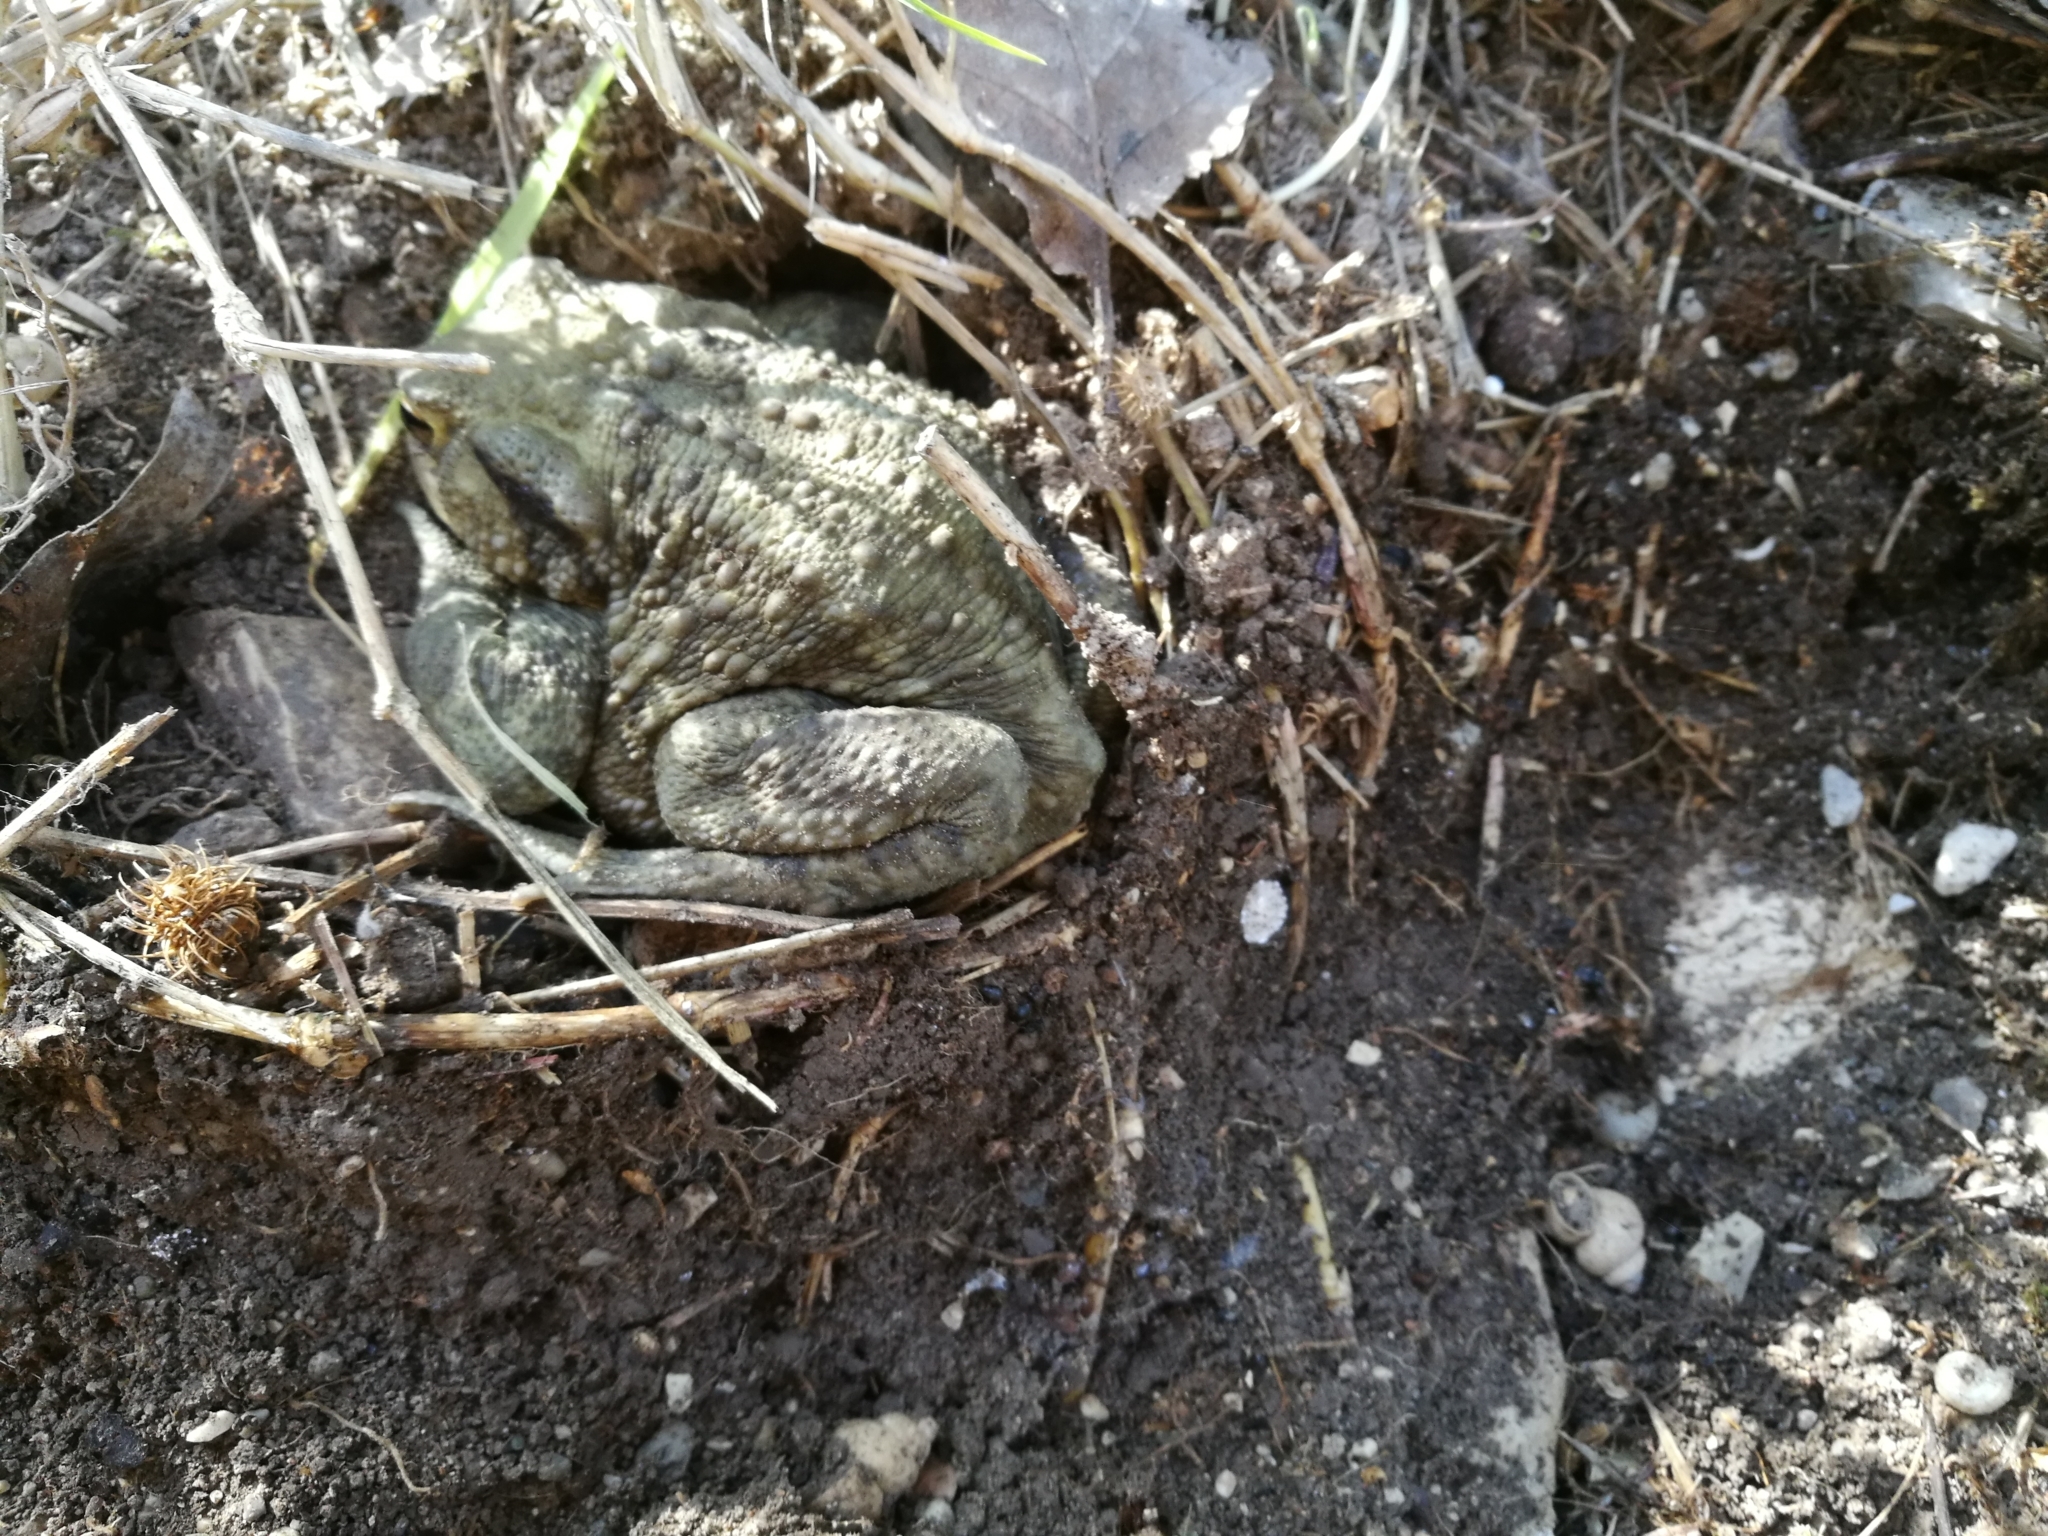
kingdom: Animalia
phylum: Chordata
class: Amphibia
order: Anura
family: Bufonidae
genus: Bufo
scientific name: Bufo bufo
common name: Common toad
